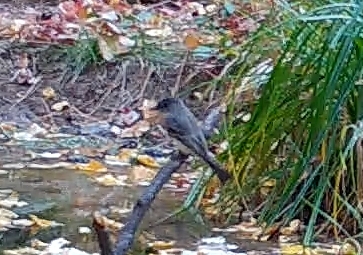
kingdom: Animalia
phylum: Chordata
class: Aves
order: Passeriformes
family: Tyrannidae
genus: Sayornis
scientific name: Sayornis phoebe
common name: Eastern phoebe
